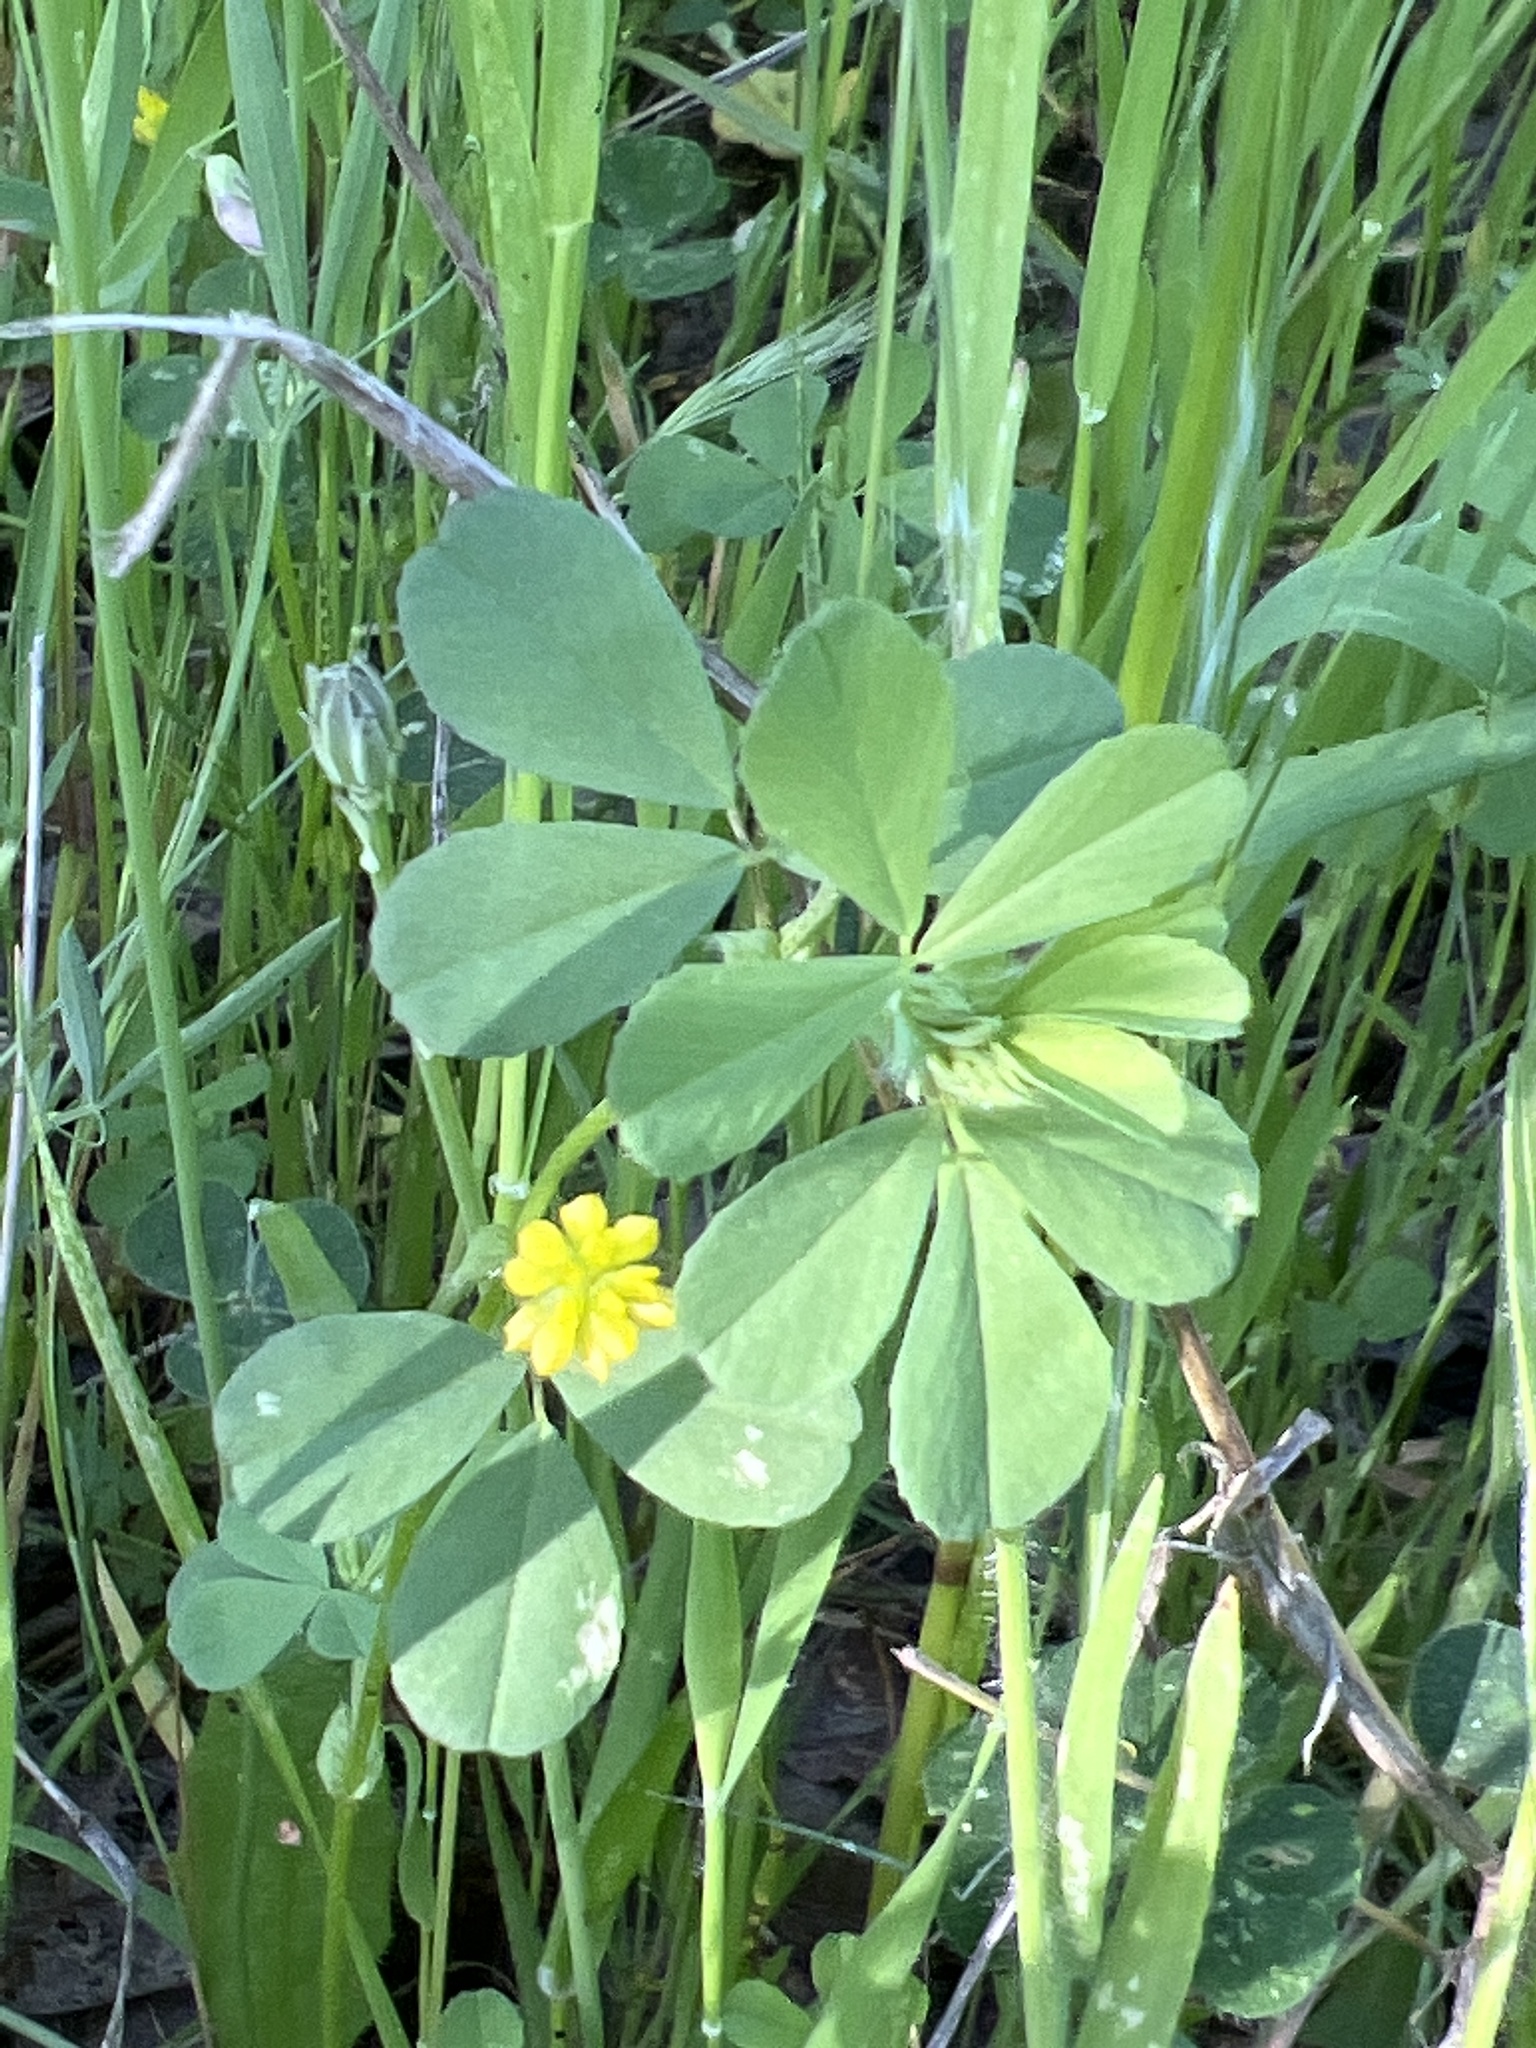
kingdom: Plantae
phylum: Tracheophyta
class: Magnoliopsida
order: Fabales
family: Fabaceae
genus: Trifolium
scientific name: Trifolium dubium
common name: Suckling clover
